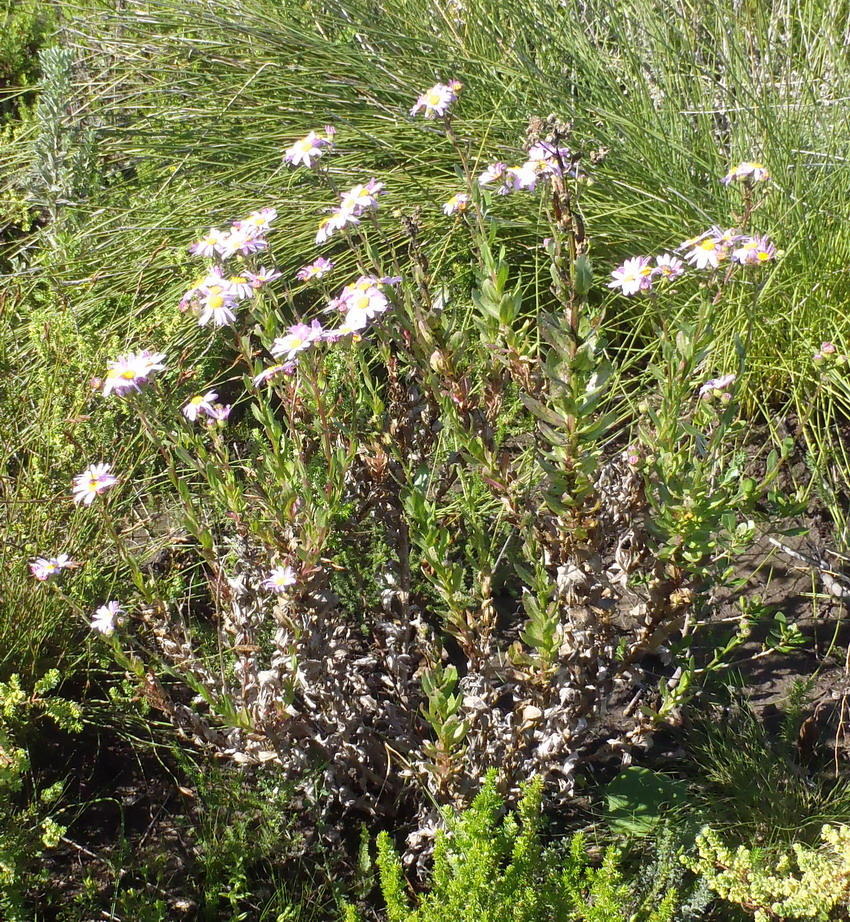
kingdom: Plantae
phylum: Tracheophyta
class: Magnoliopsida
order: Asterales
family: Asteraceae
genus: Senecio
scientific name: Senecio glastifolius
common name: Woad-leaved ragwort
